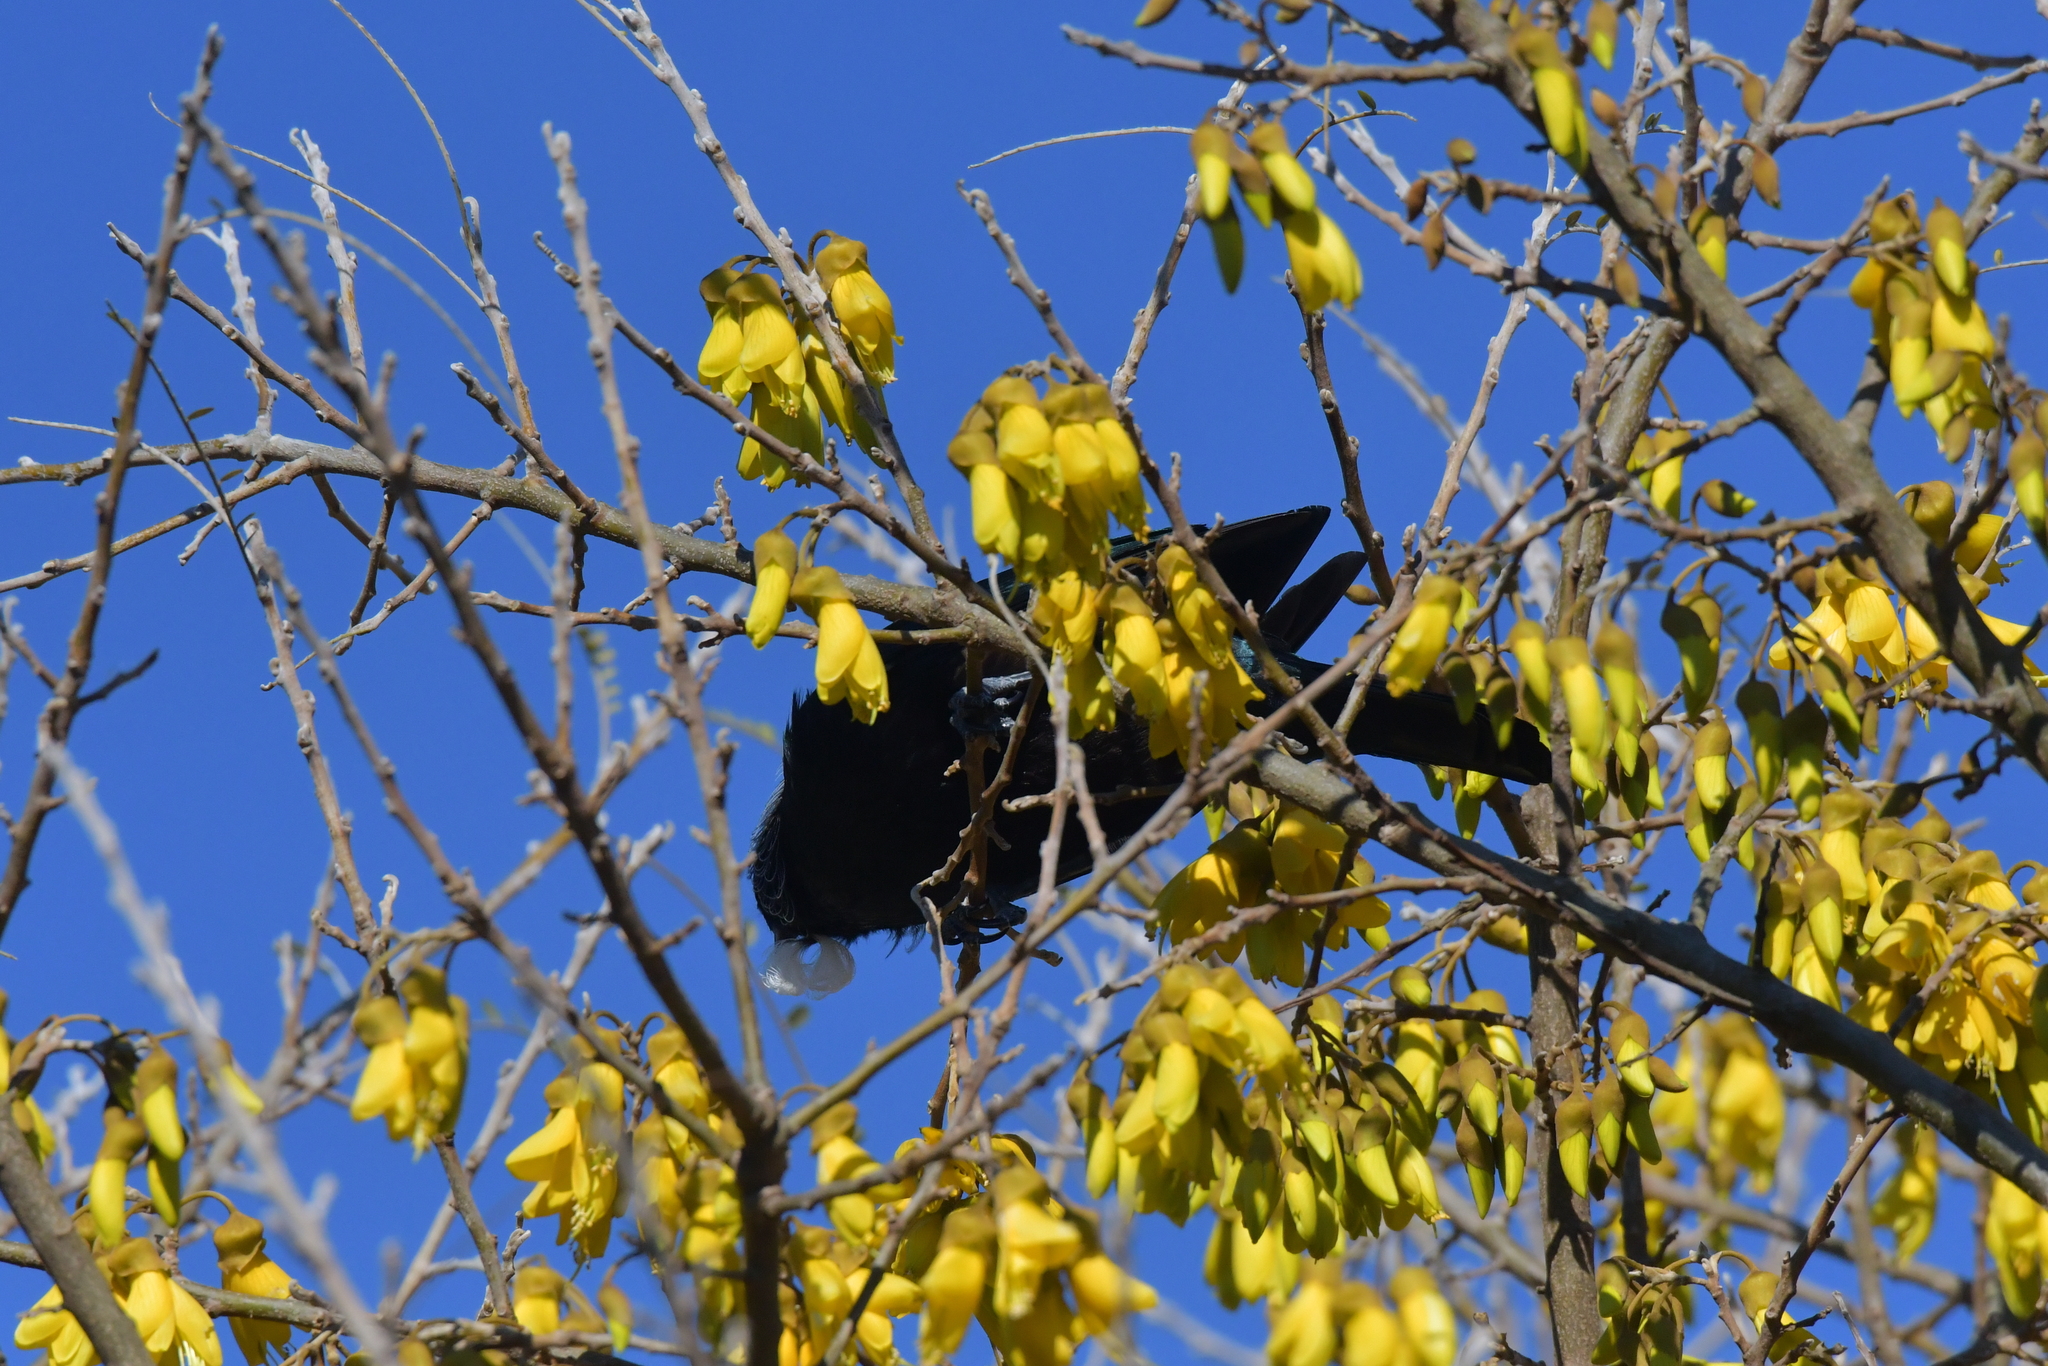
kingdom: Animalia
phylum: Chordata
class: Aves
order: Passeriformes
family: Meliphagidae
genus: Prosthemadera
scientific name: Prosthemadera novaeseelandiae
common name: Tui
